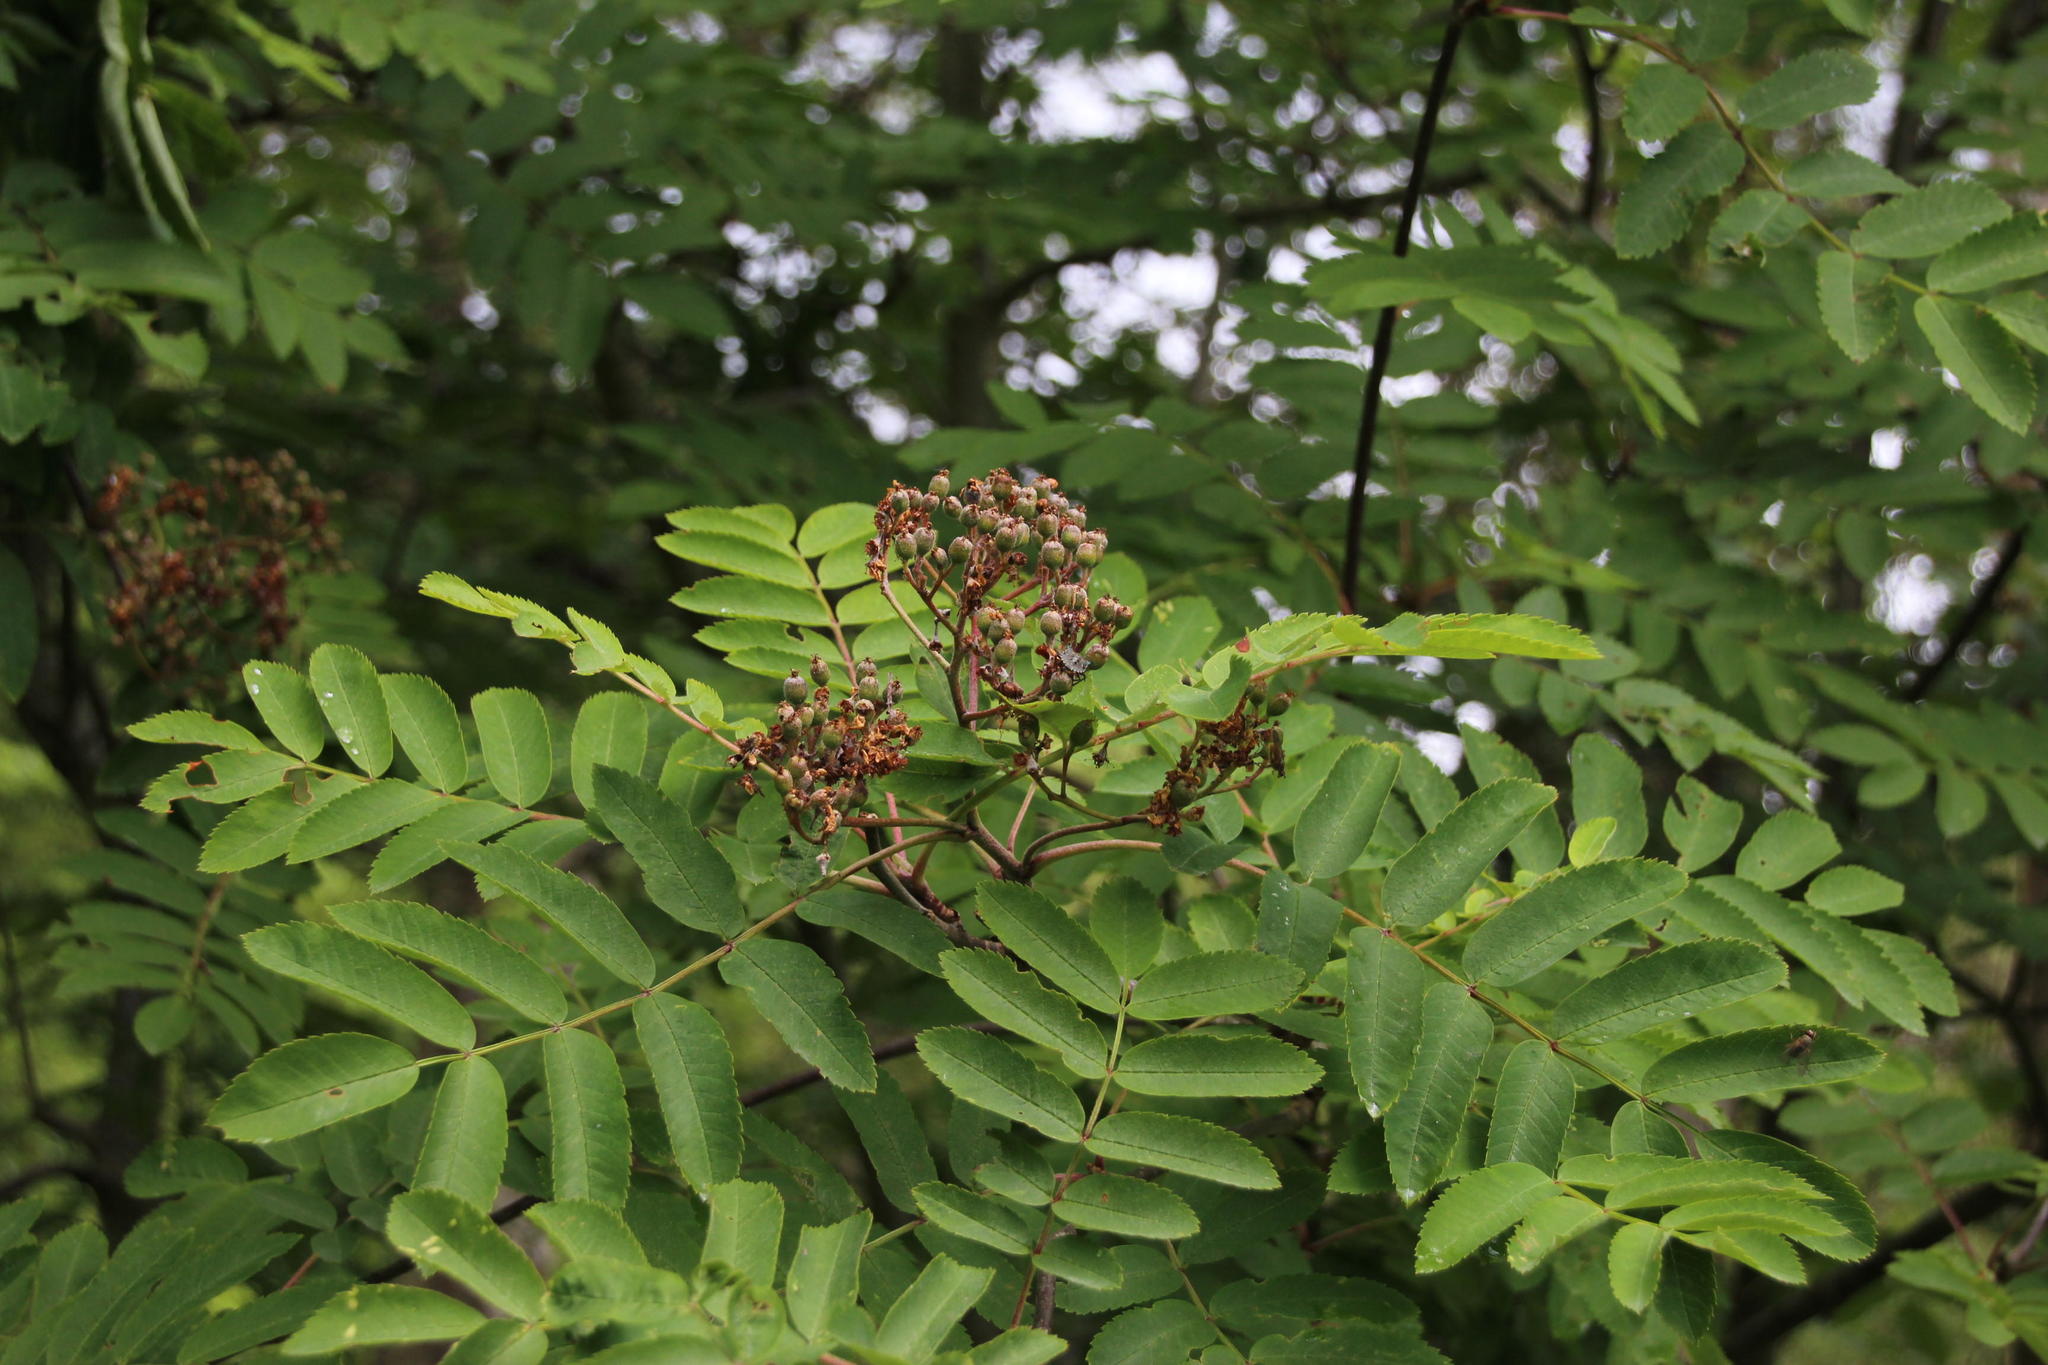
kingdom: Plantae
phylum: Tracheophyta
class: Magnoliopsida
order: Rosales
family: Rosaceae
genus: Sorbus
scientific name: Sorbus aucuparia
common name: Rowan
